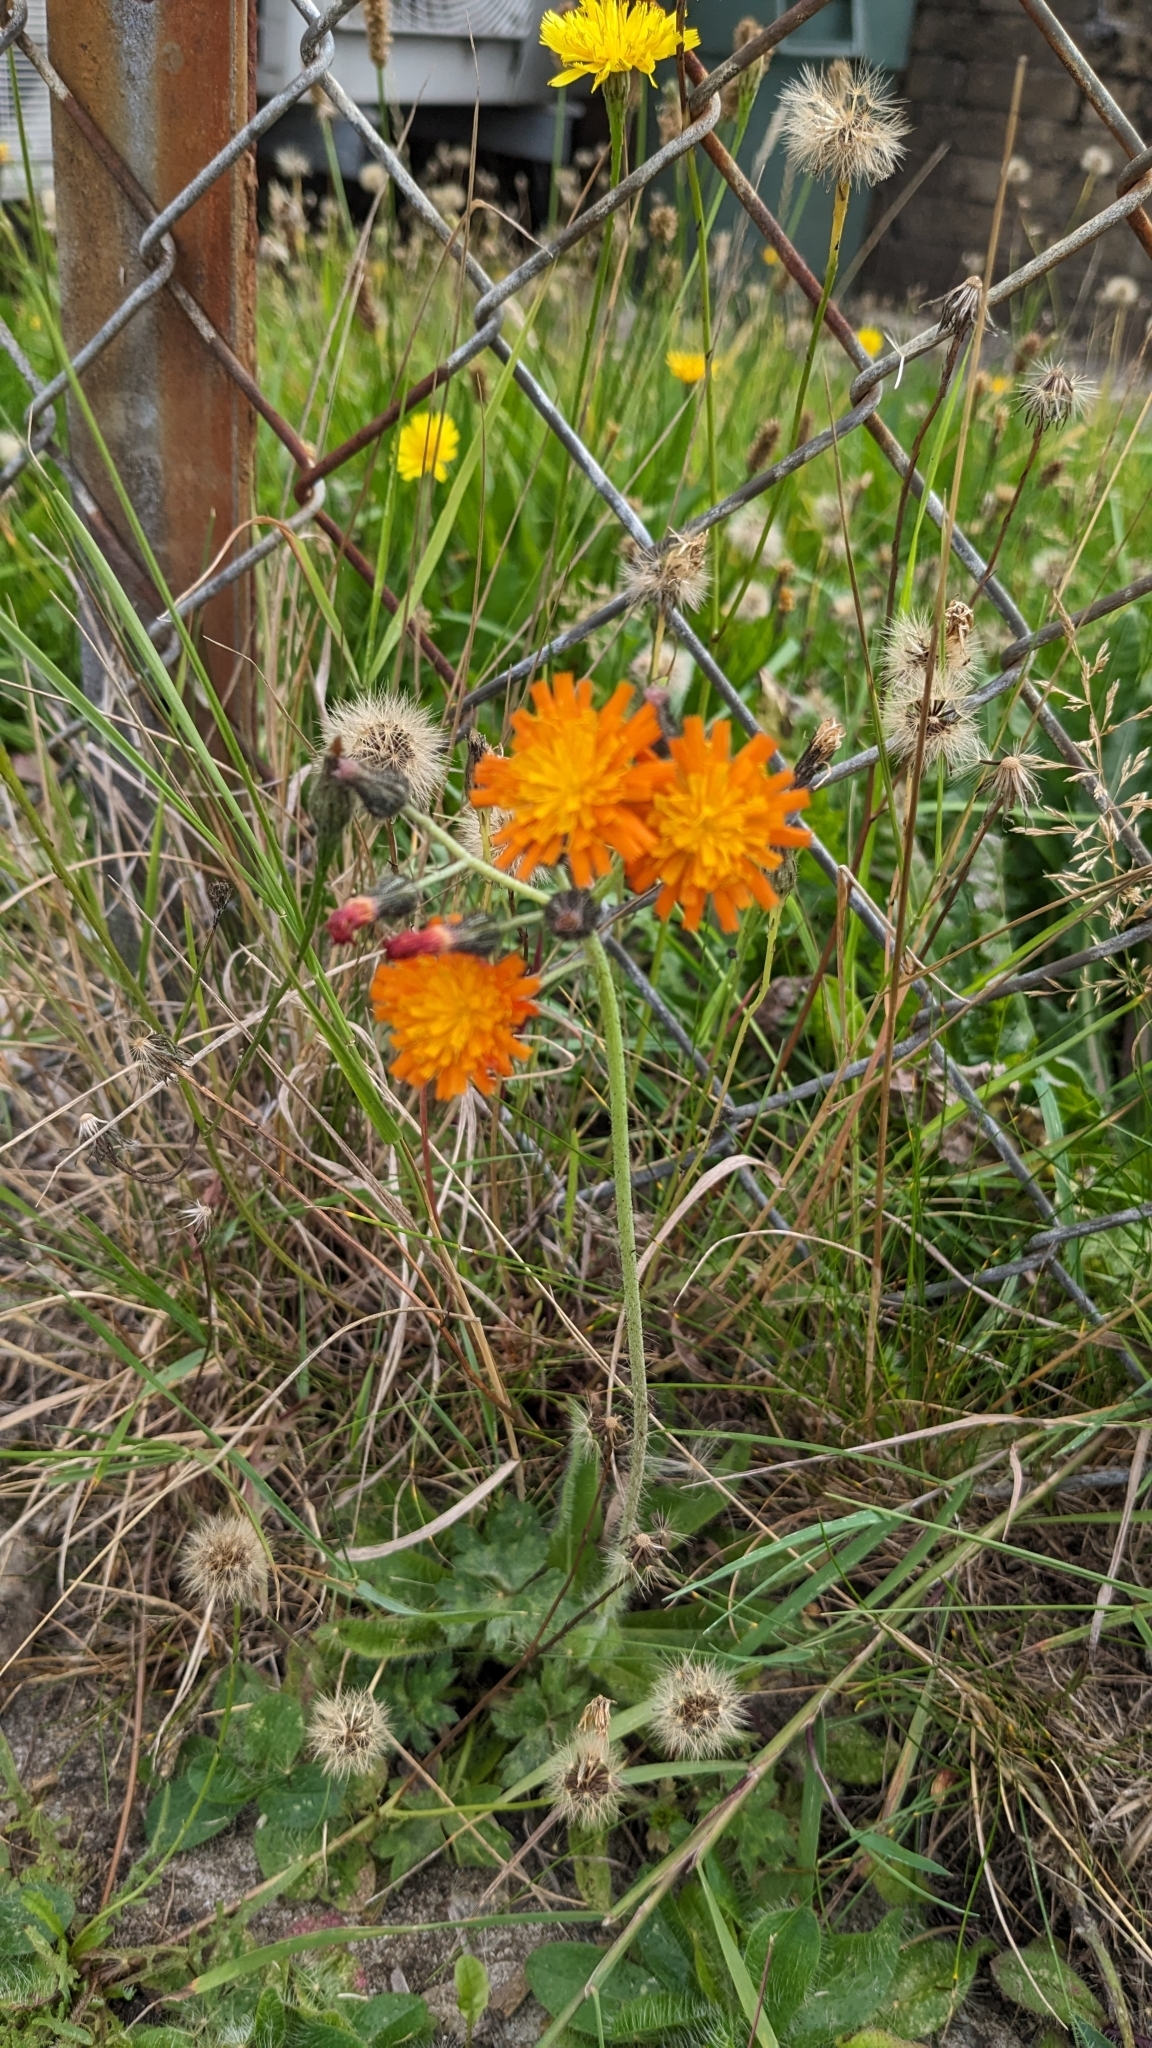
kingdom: Plantae
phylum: Tracheophyta
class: Magnoliopsida
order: Asterales
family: Asteraceae
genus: Pilosella
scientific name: Pilosella aurantiaca
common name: Fox-and-cubs
